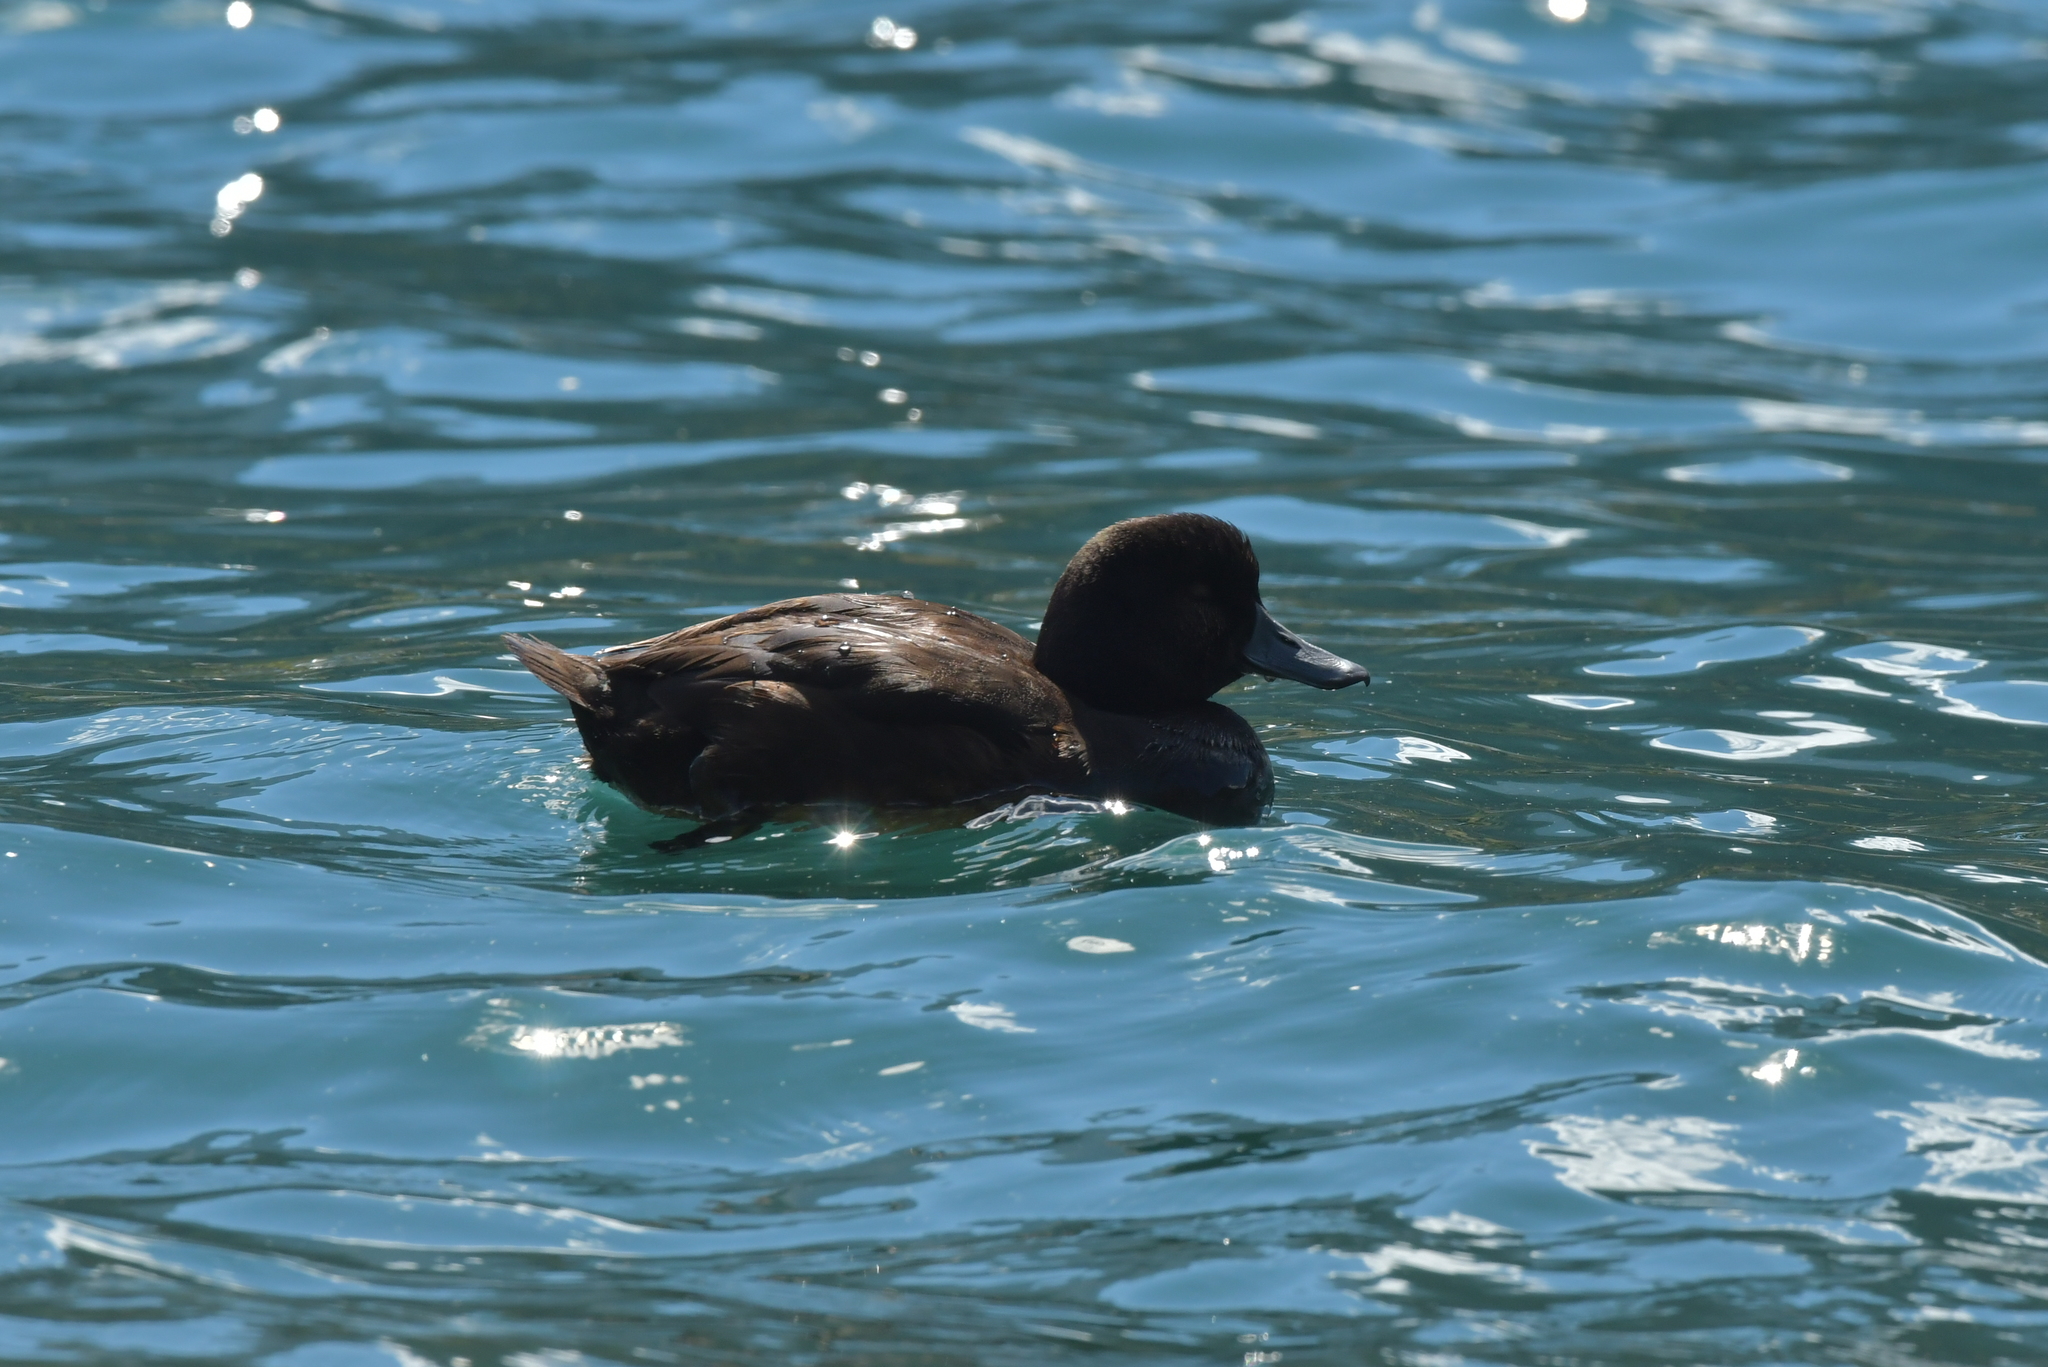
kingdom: Animalia
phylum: Chordata
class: Aves
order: Anseriformes
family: Anatidae
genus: Aythya
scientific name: Aythya novaeseelandiae
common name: New zealand scaup
